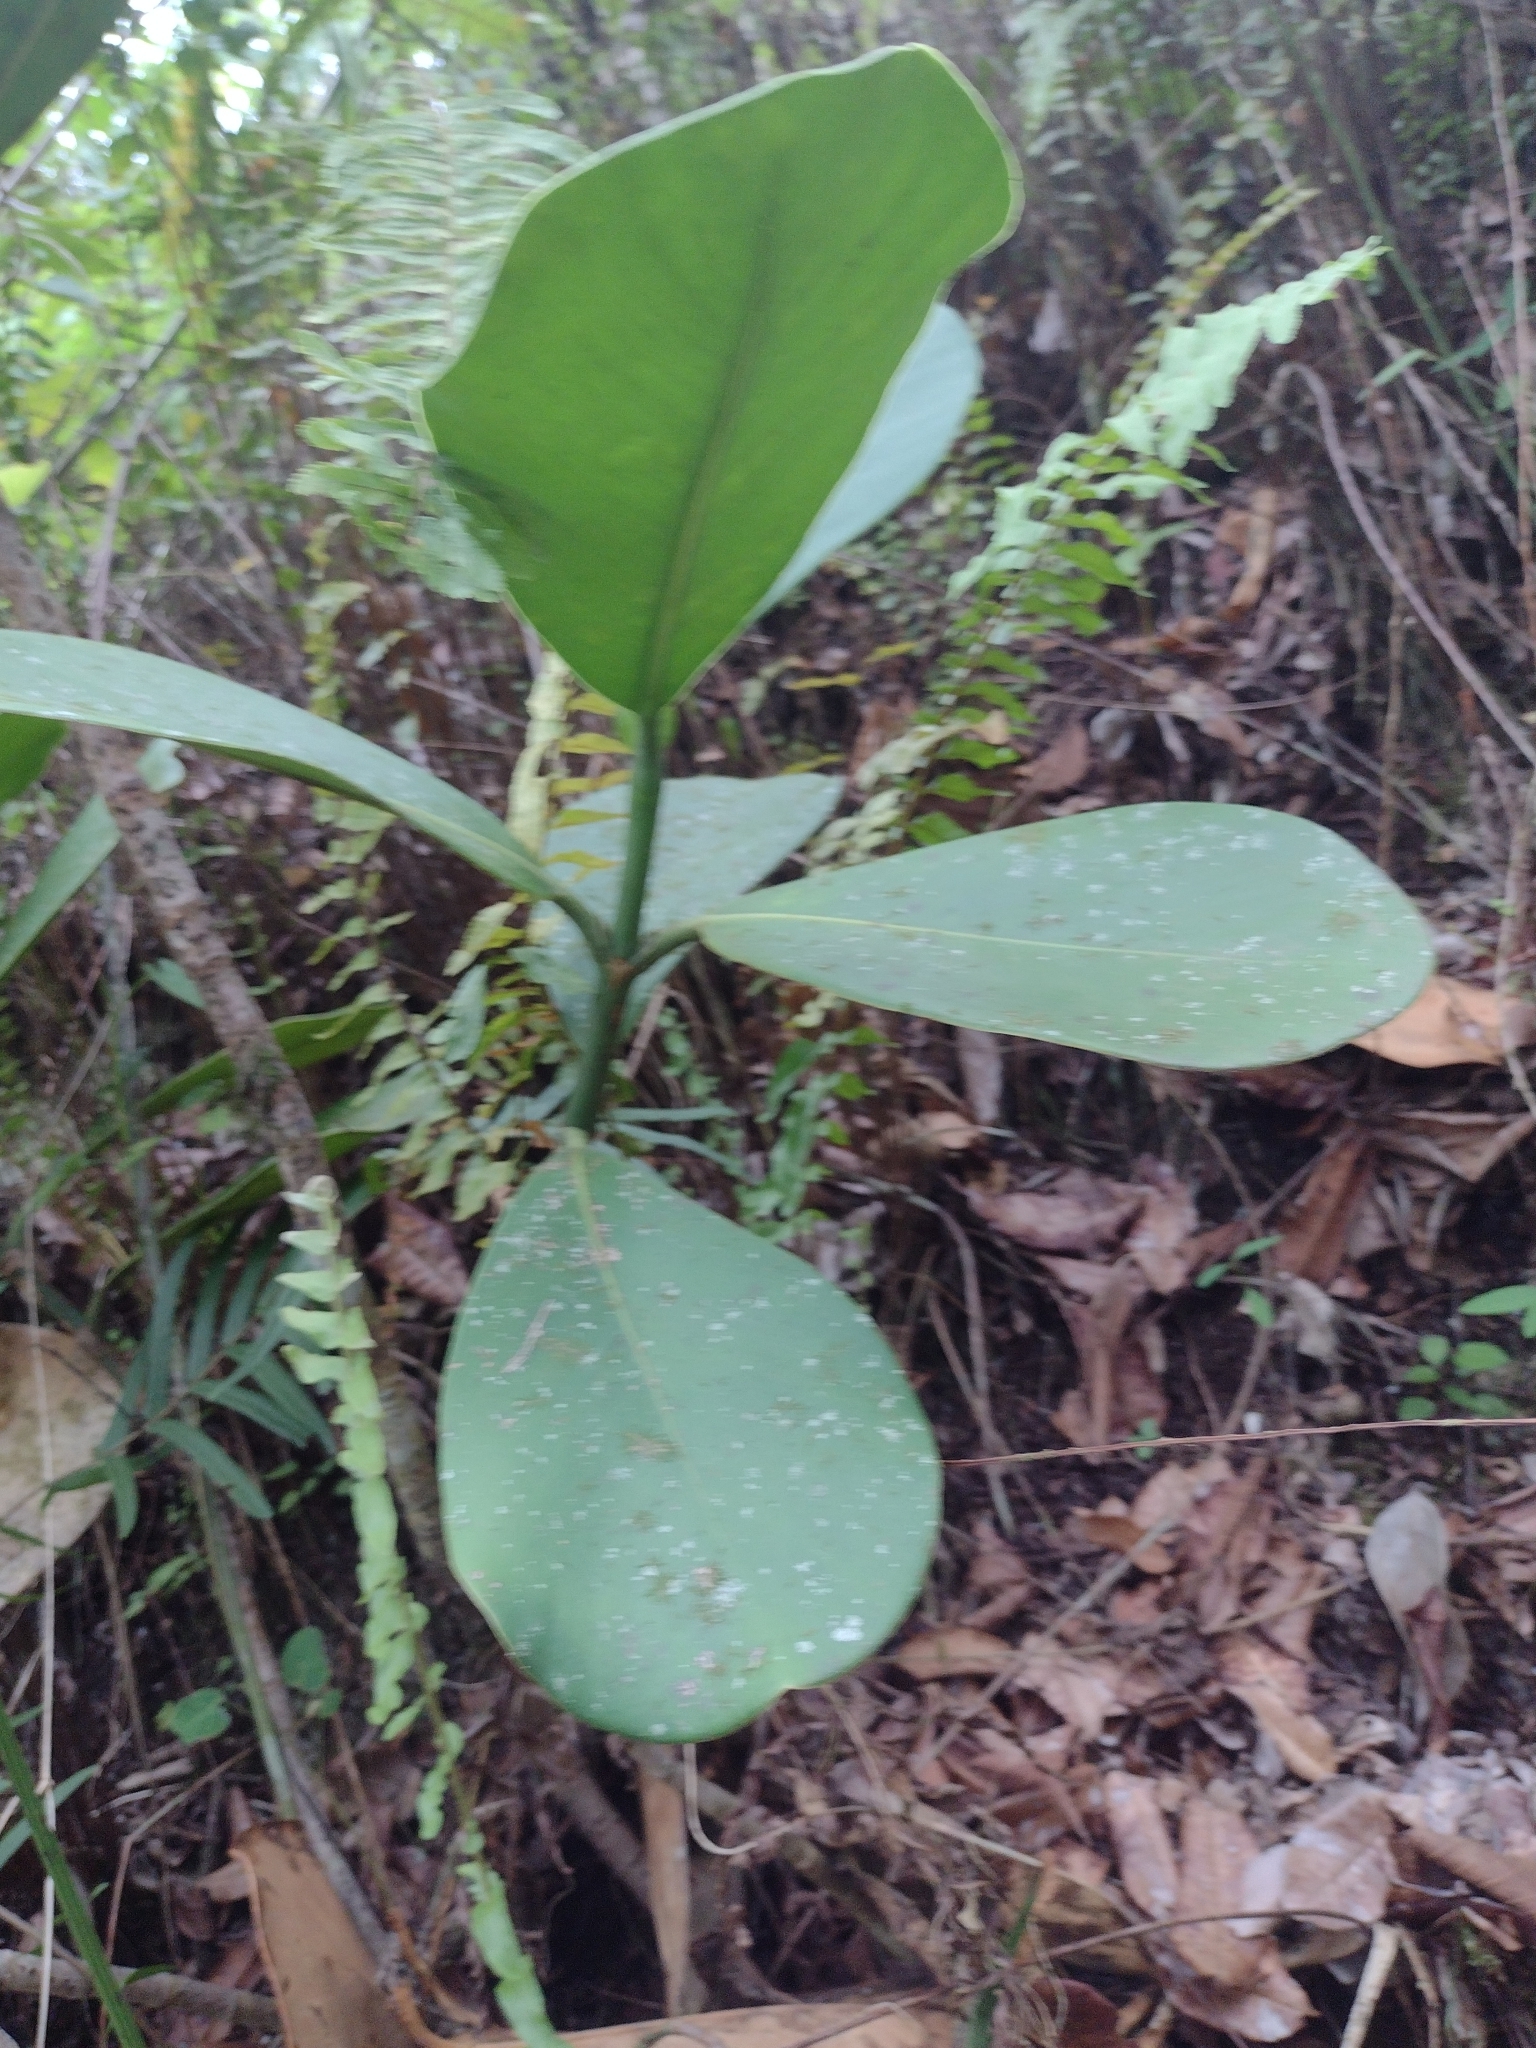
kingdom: Plantae
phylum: Tracheophyta
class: Magnoliopsida
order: Malpighiales
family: Clusiaceae
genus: Clusia
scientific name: Clusia rosea
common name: Scotch attorney
